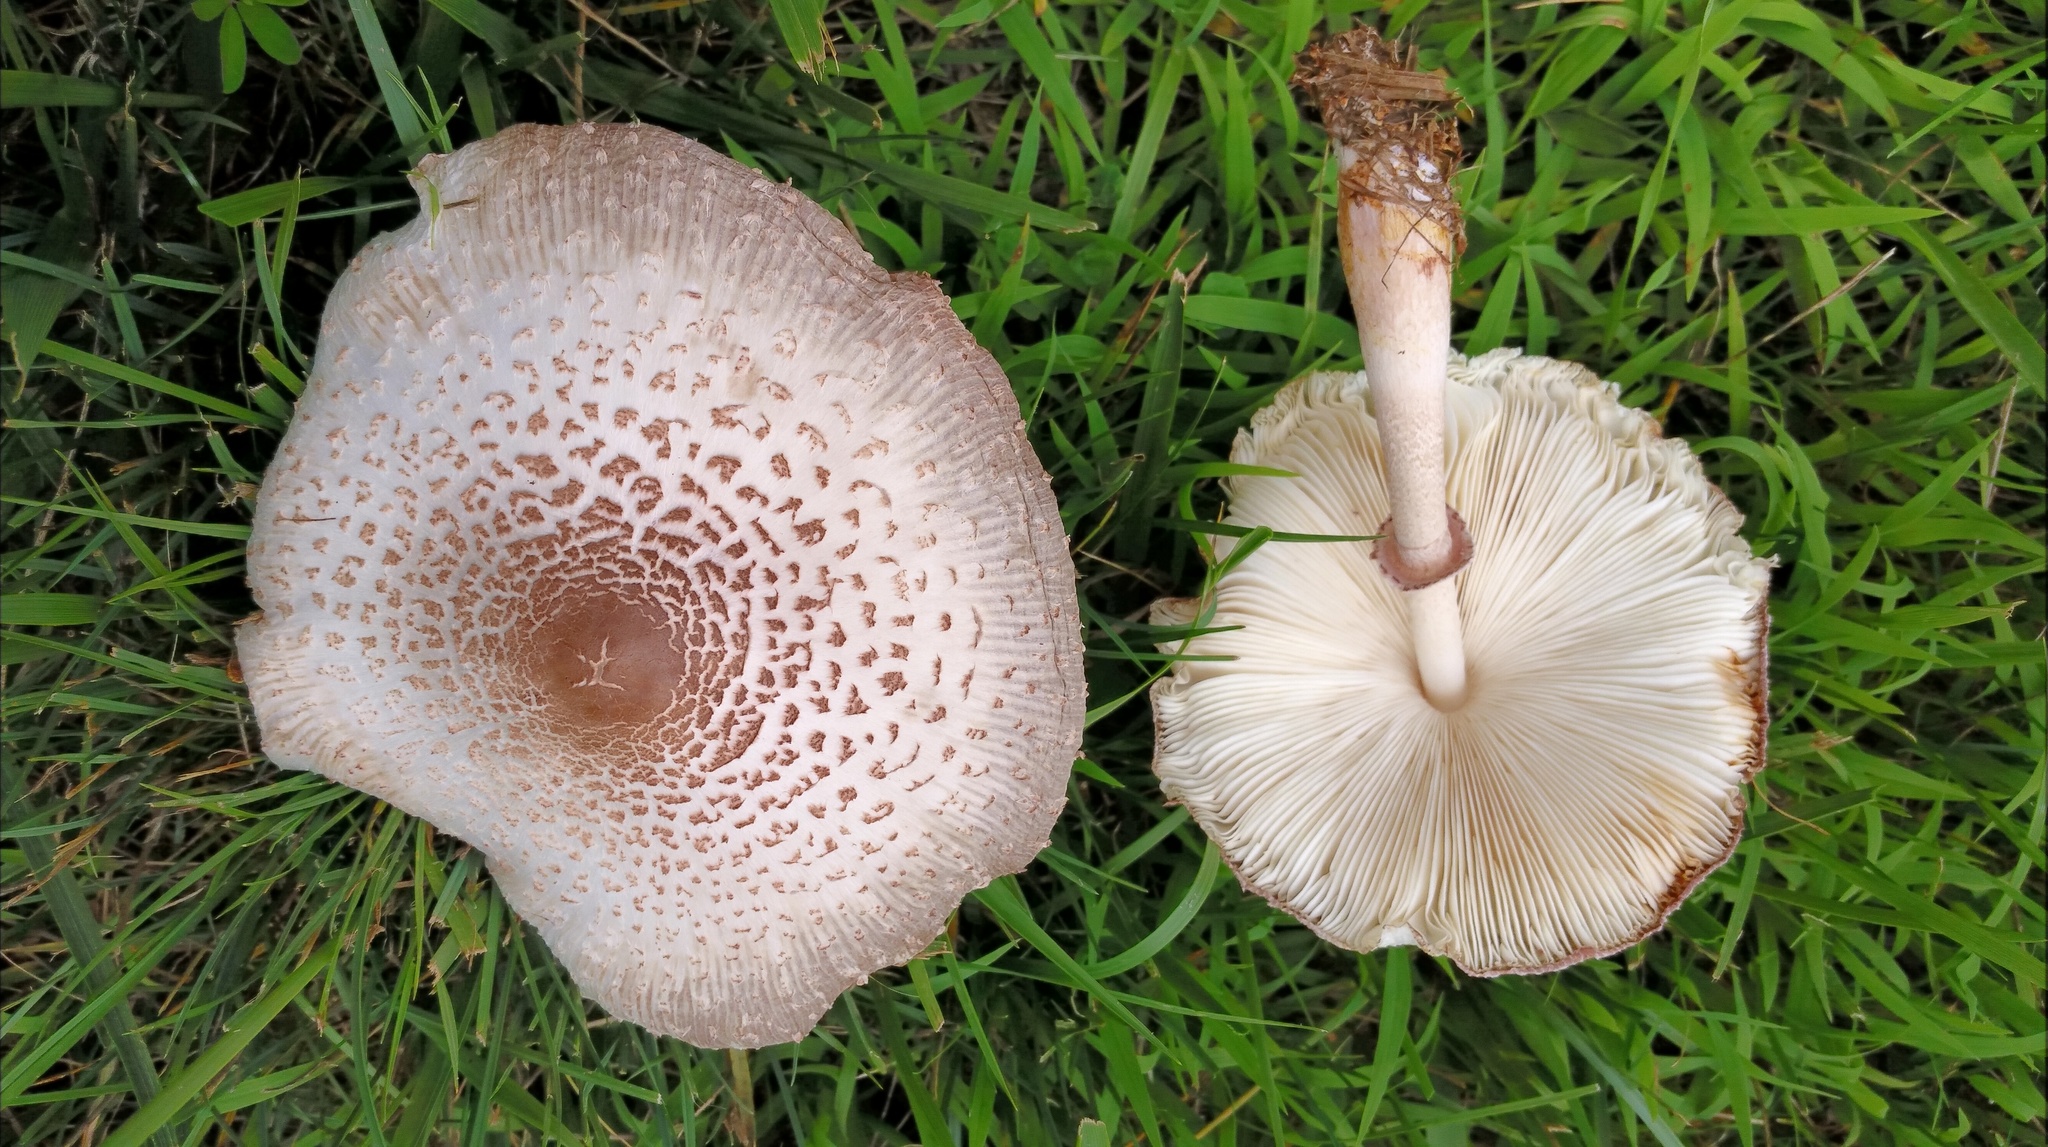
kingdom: Fungi
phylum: Basidiomycota
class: Agaricomycetes
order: Agaricales
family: Agaricaceae
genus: Leucoagaricus
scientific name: Leucoagaricus americanus
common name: Reddening lepiota
